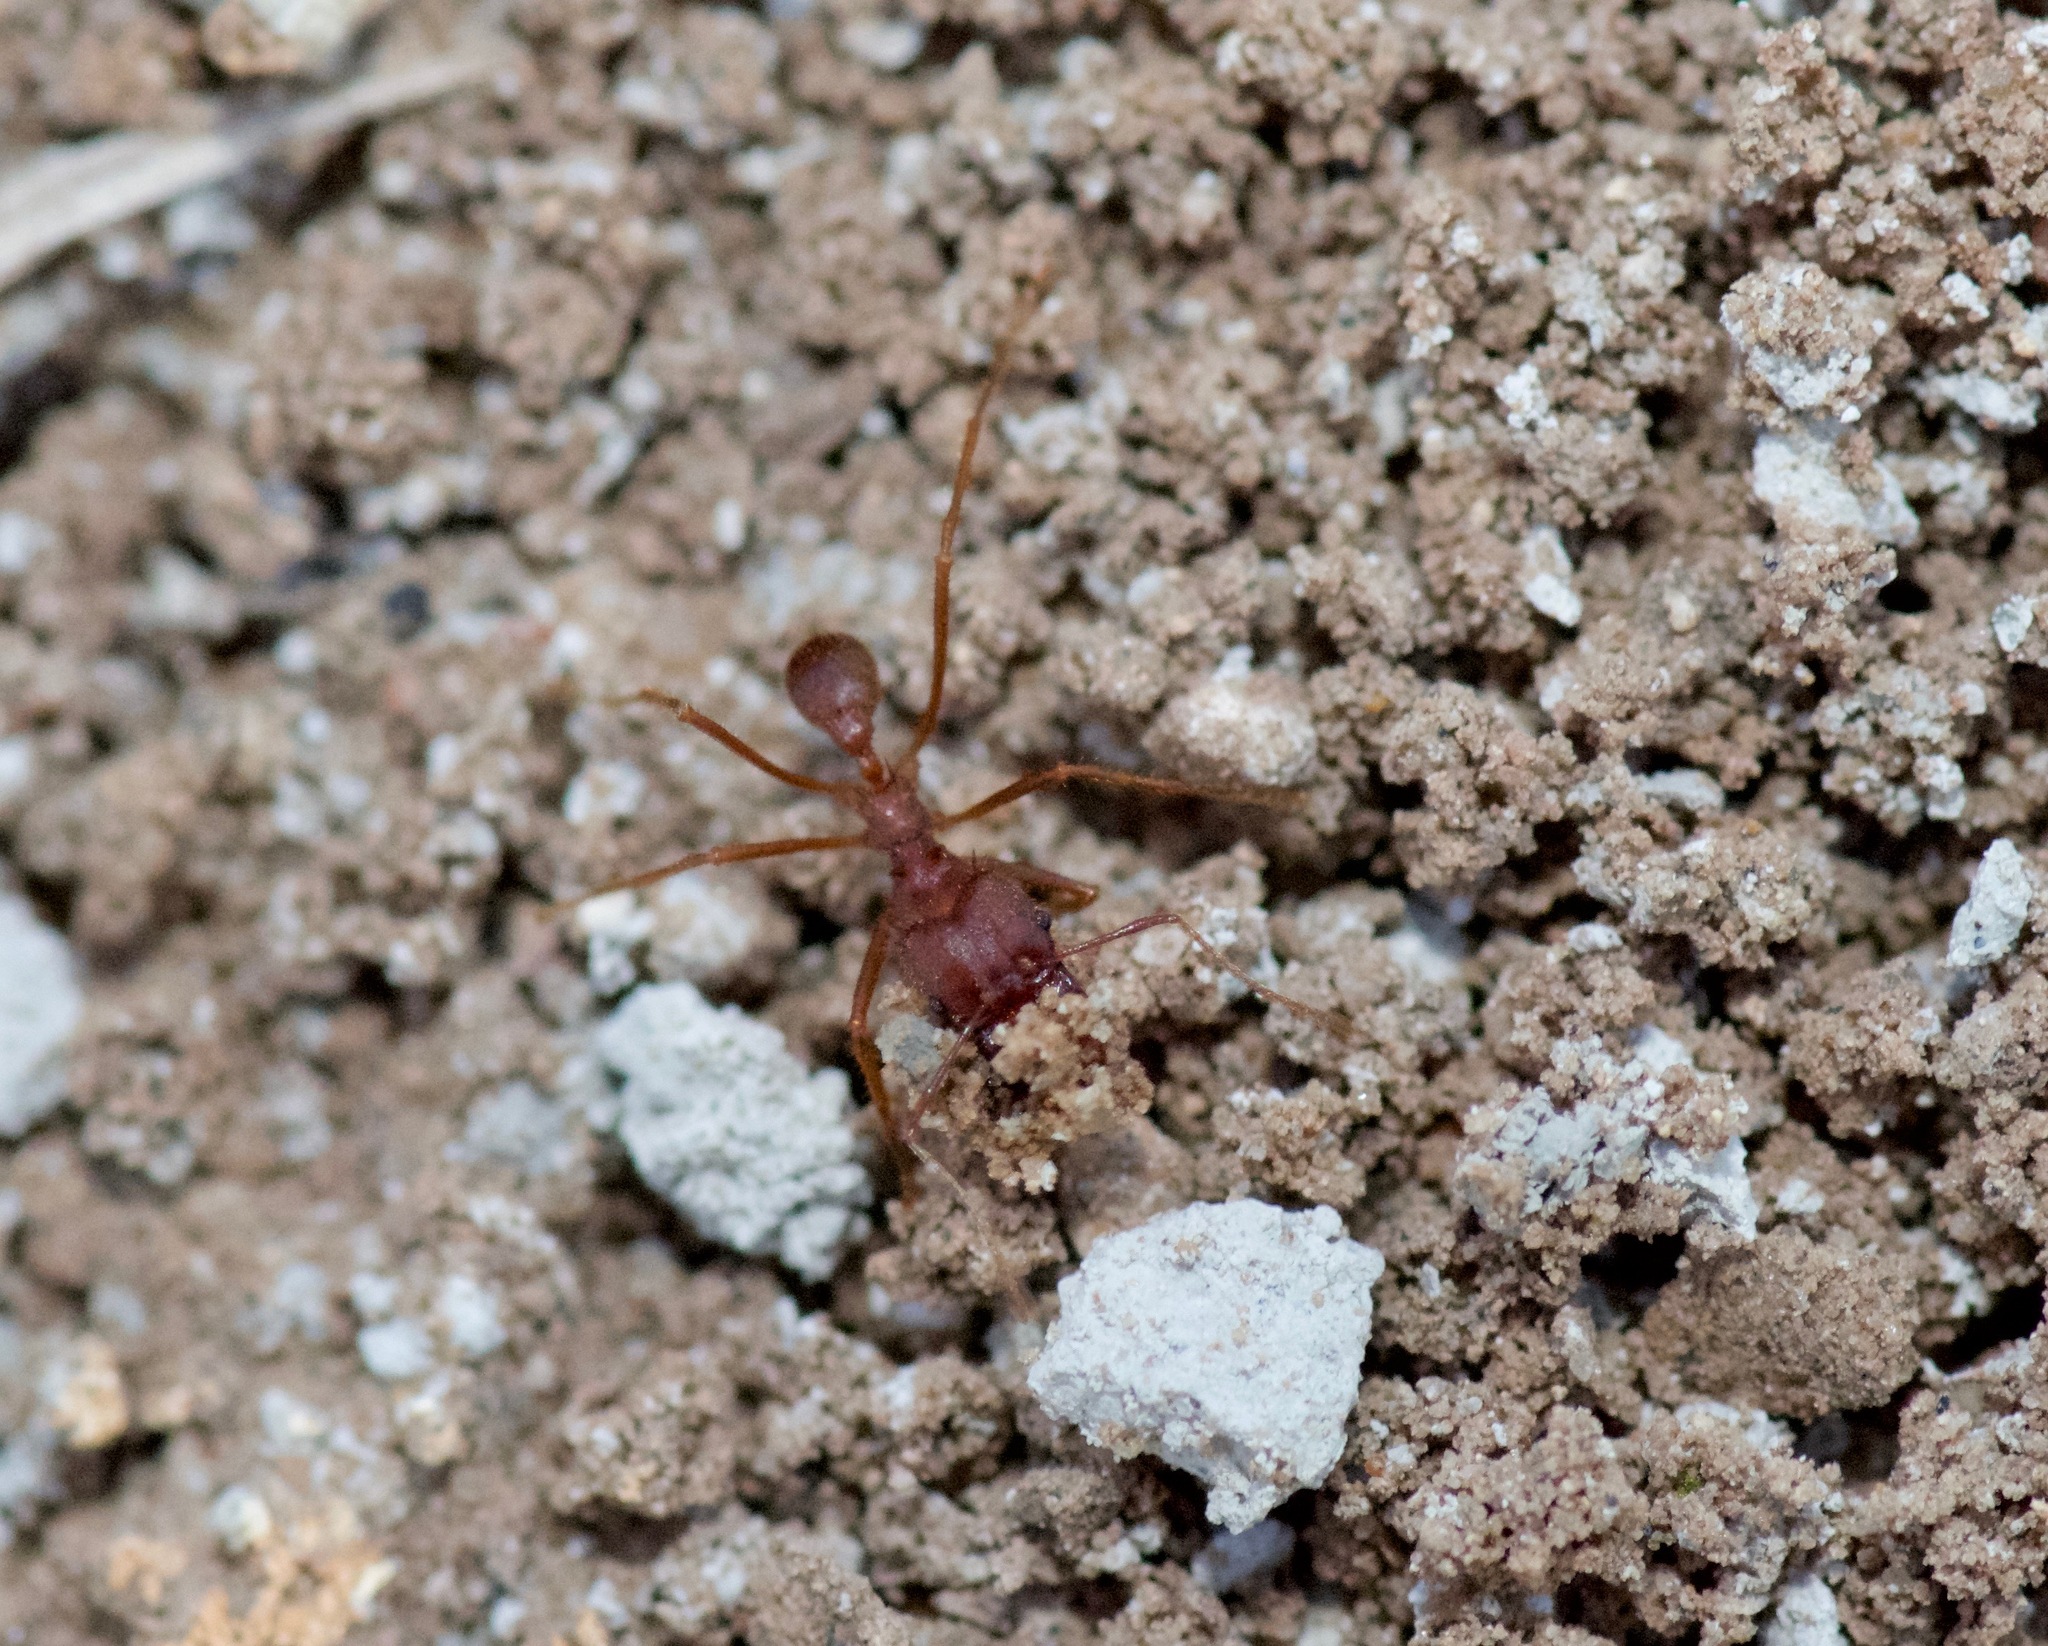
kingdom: Animalia
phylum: Arthropoda
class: Insecta
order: Hymenoptera
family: Formicidae
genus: Atta
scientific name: Atta texana
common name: Texas leafcutting ant
